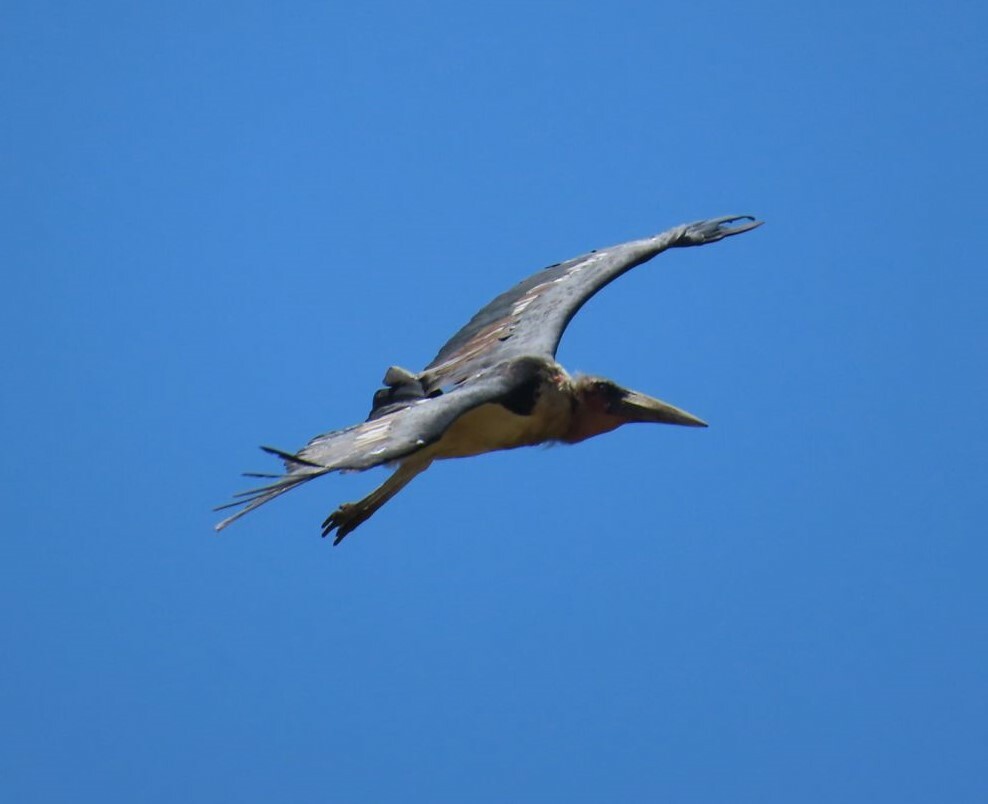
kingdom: Animalia
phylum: Chordata
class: Aves
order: Ciconiiformes
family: Ciconiidae
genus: Leptoptilos
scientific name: Leptoptilos crumenifer
